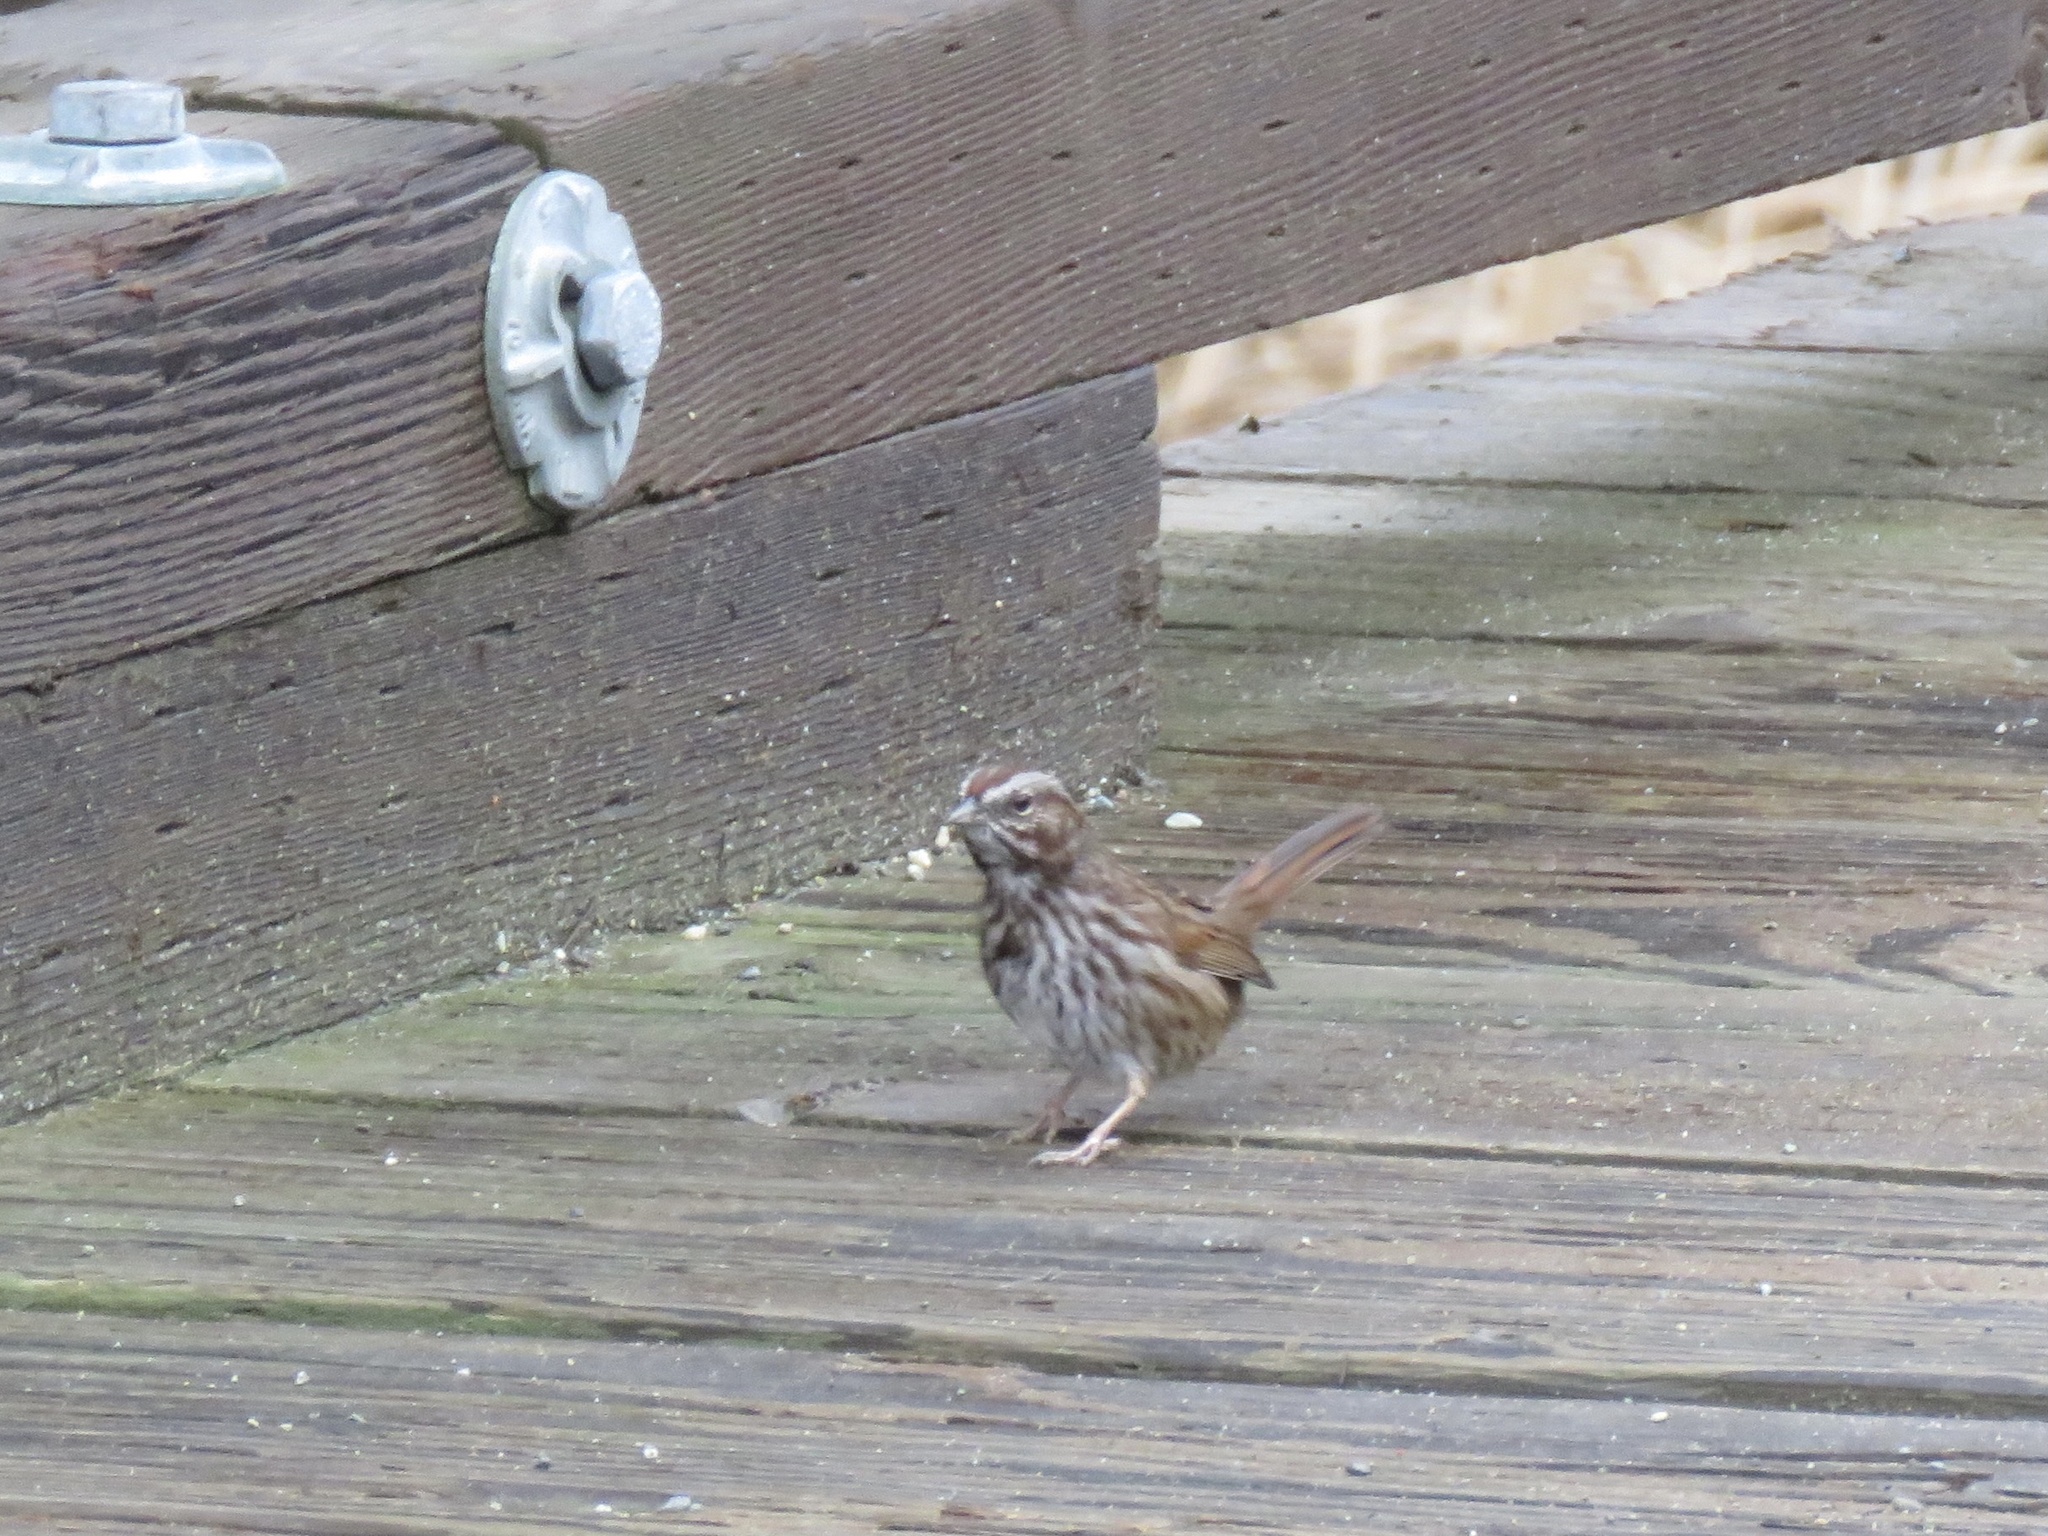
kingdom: Animalia
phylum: Chordata
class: Aves
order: Passeriformes
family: Passerellidae
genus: Melospiza
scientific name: Melospiza melodia
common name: Song sparrow
